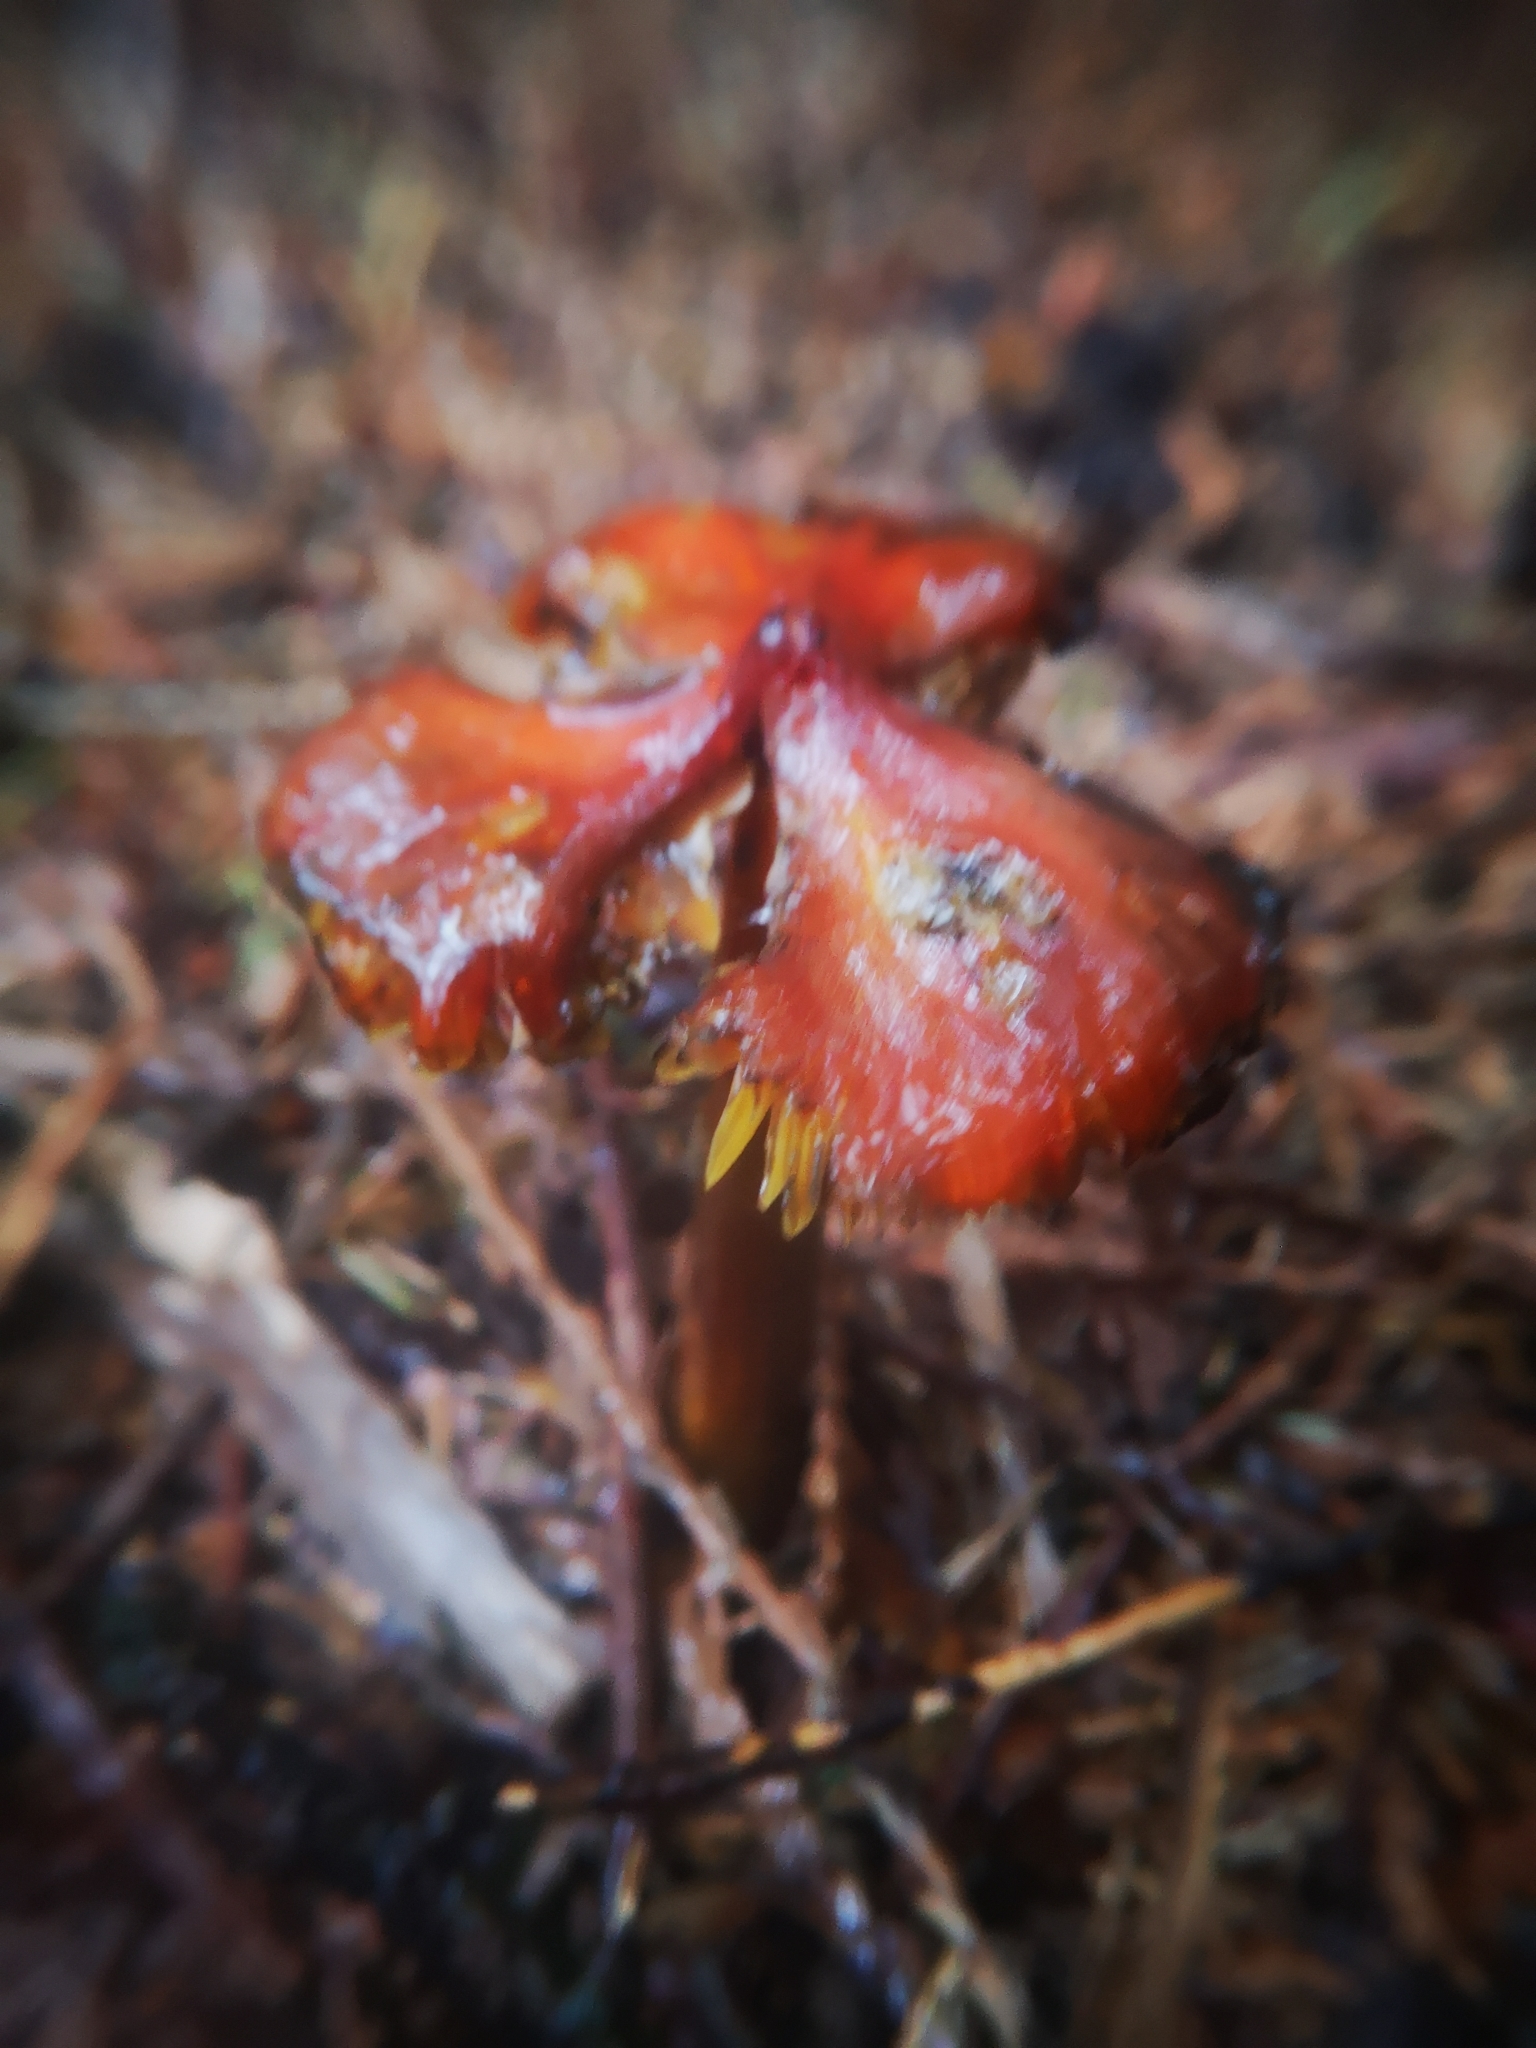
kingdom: Fungi
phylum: Basidiomycota
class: Agaricomycetes
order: Agaricales
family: Hygrophoraceae
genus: Hygrocybe
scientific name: Hygrocybe conica
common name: Blackening wax-cap
